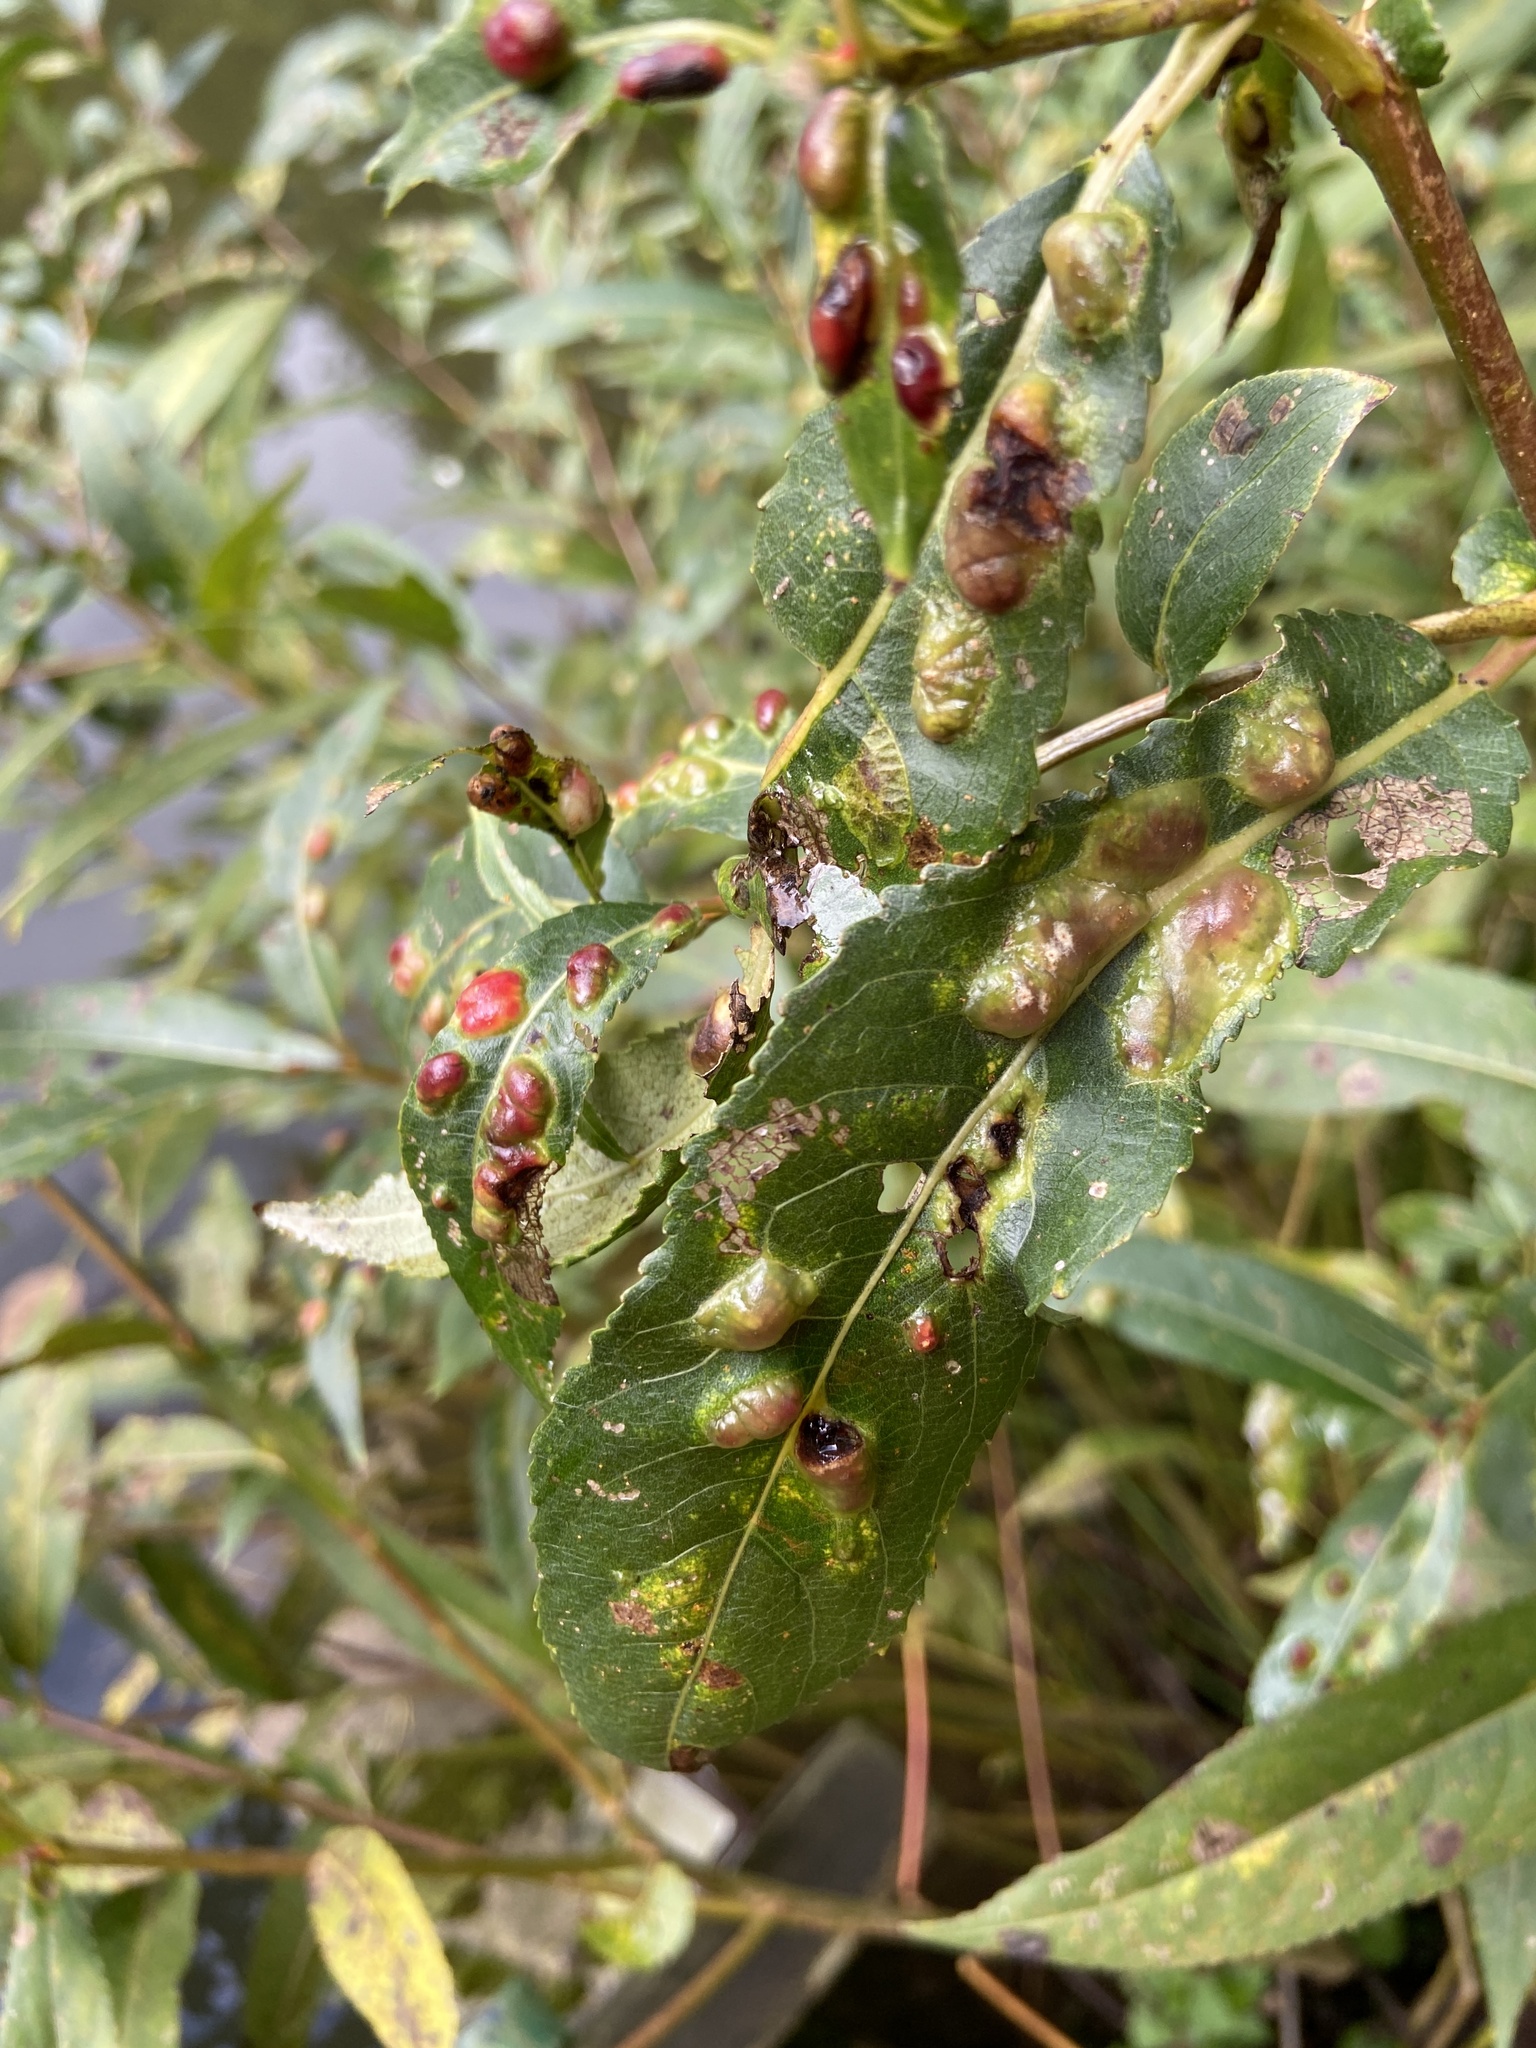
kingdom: Animalia
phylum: Arthropoda
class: Insecta
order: Hymenoptera
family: Tenthredinidae
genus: Pontania
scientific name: Pontania proxima
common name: Common sawfly
